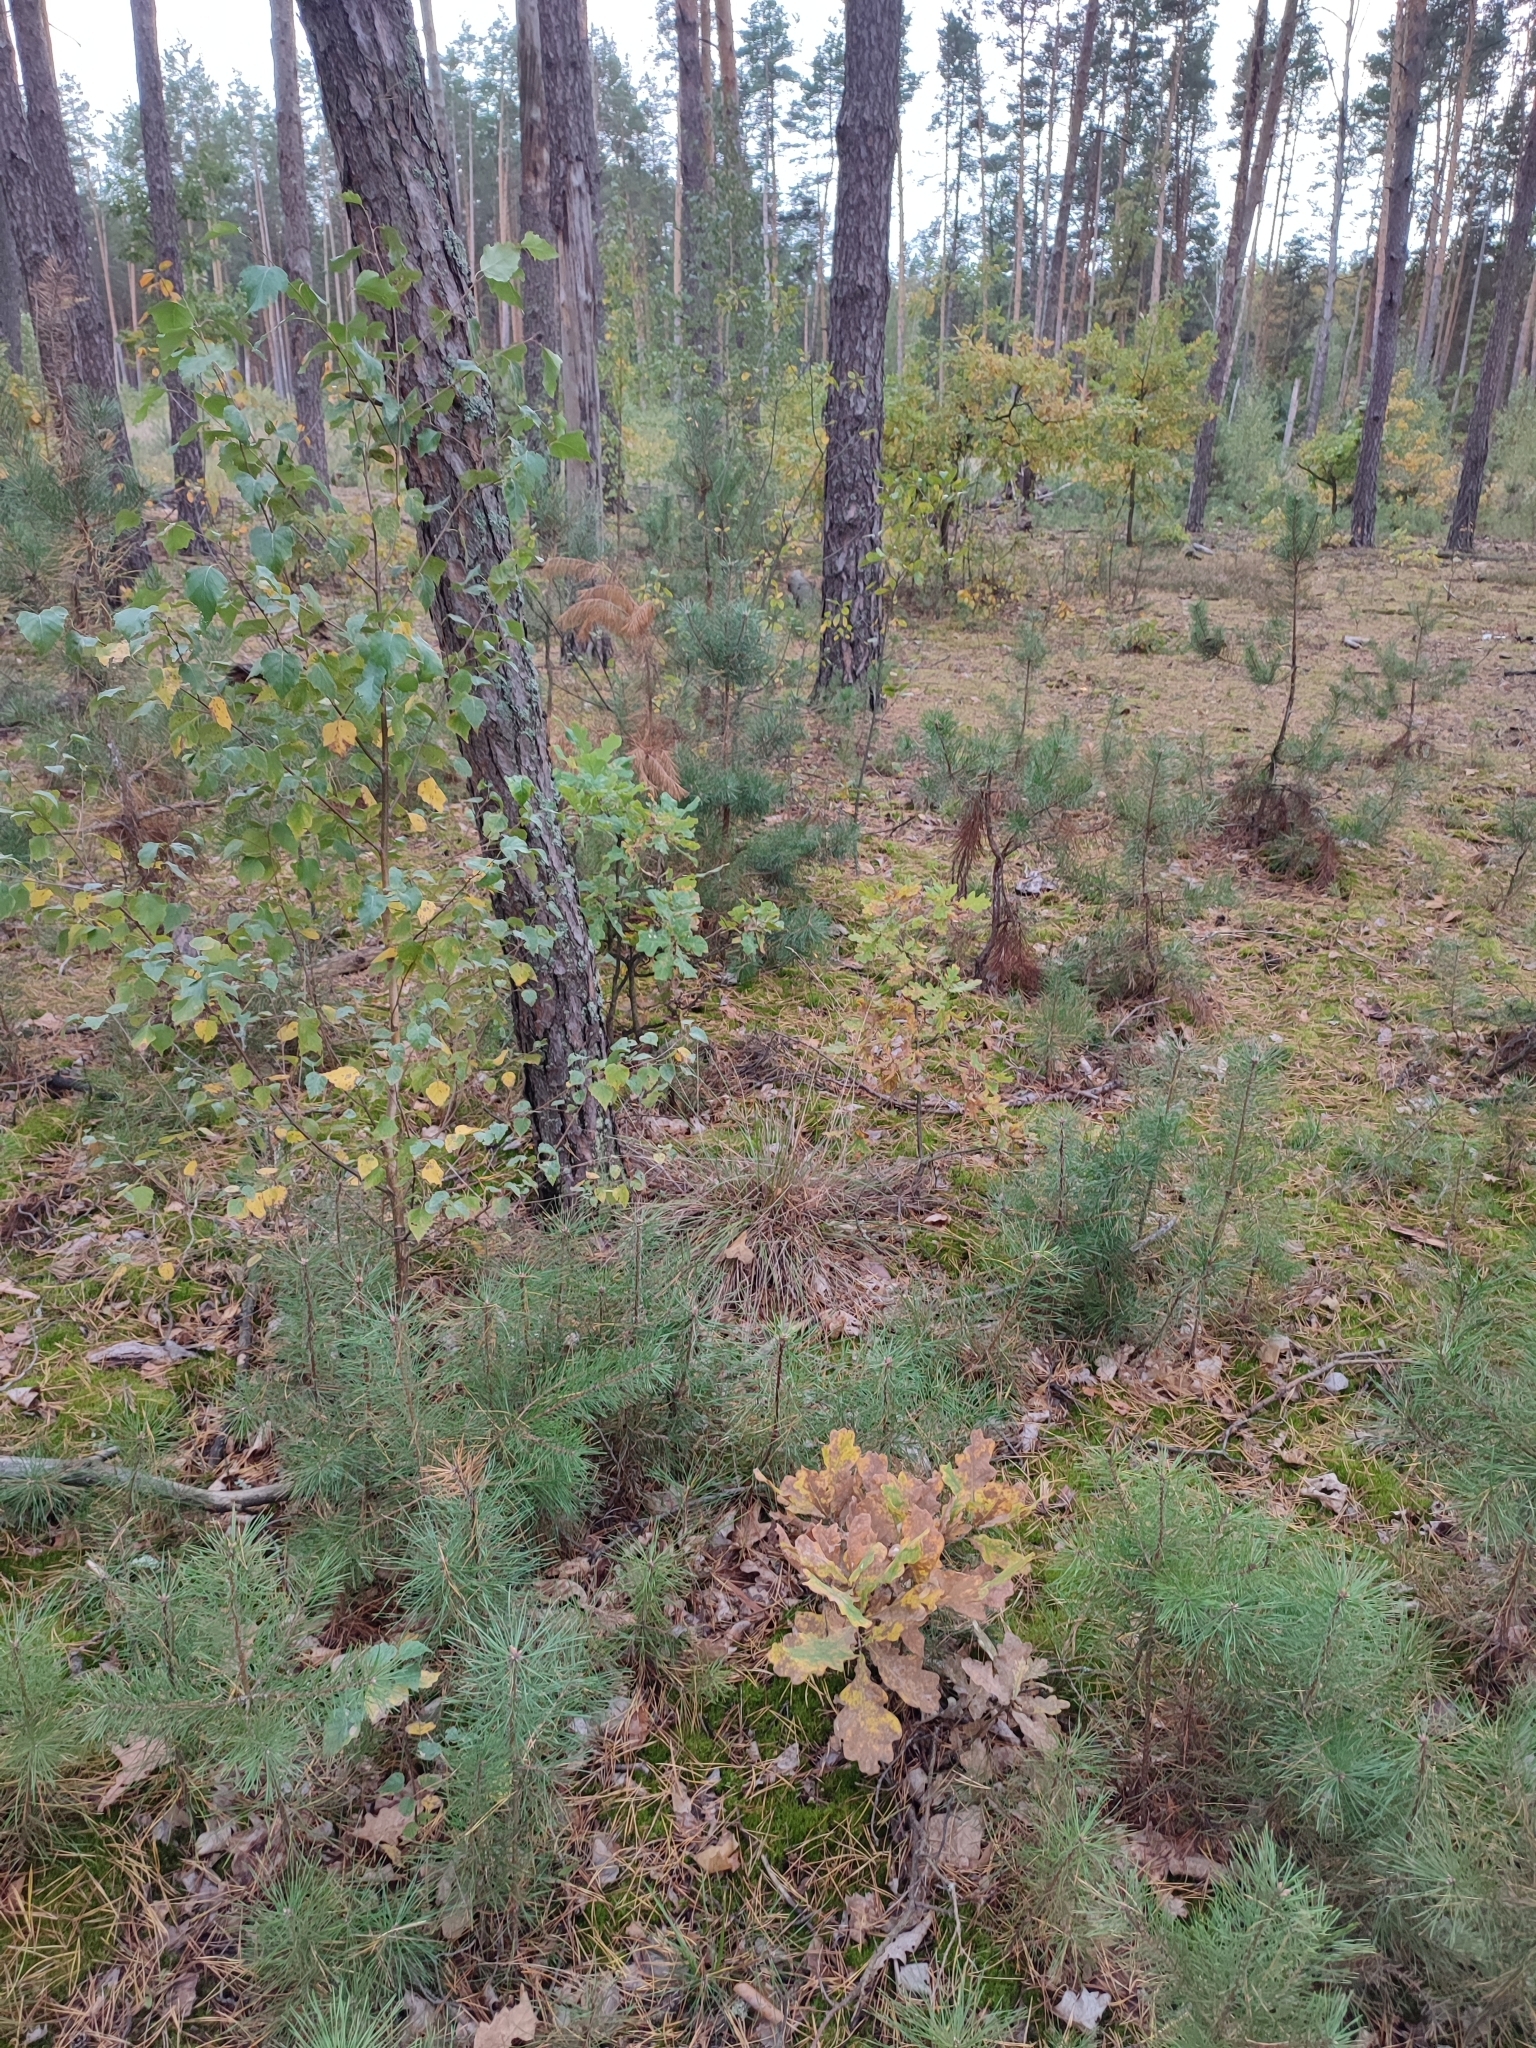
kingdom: Plantae
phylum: Tracheophyta
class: Magnoliopsida
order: Fagales
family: Fagaceae
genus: Quercus
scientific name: Quercus robur
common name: Pedunculate oak
